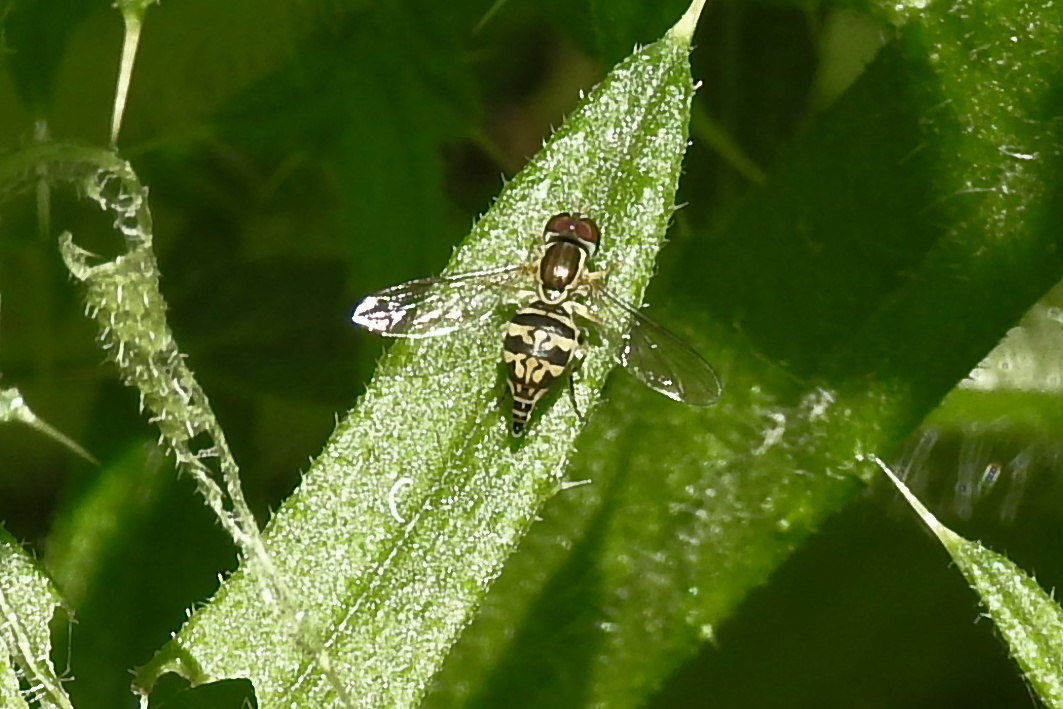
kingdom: Animalia
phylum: Arthropoda
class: Insecta
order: Diptera
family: Syrphidae
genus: Toxomerus
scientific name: Toxomerus geminatus
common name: Eastern calligrapher
